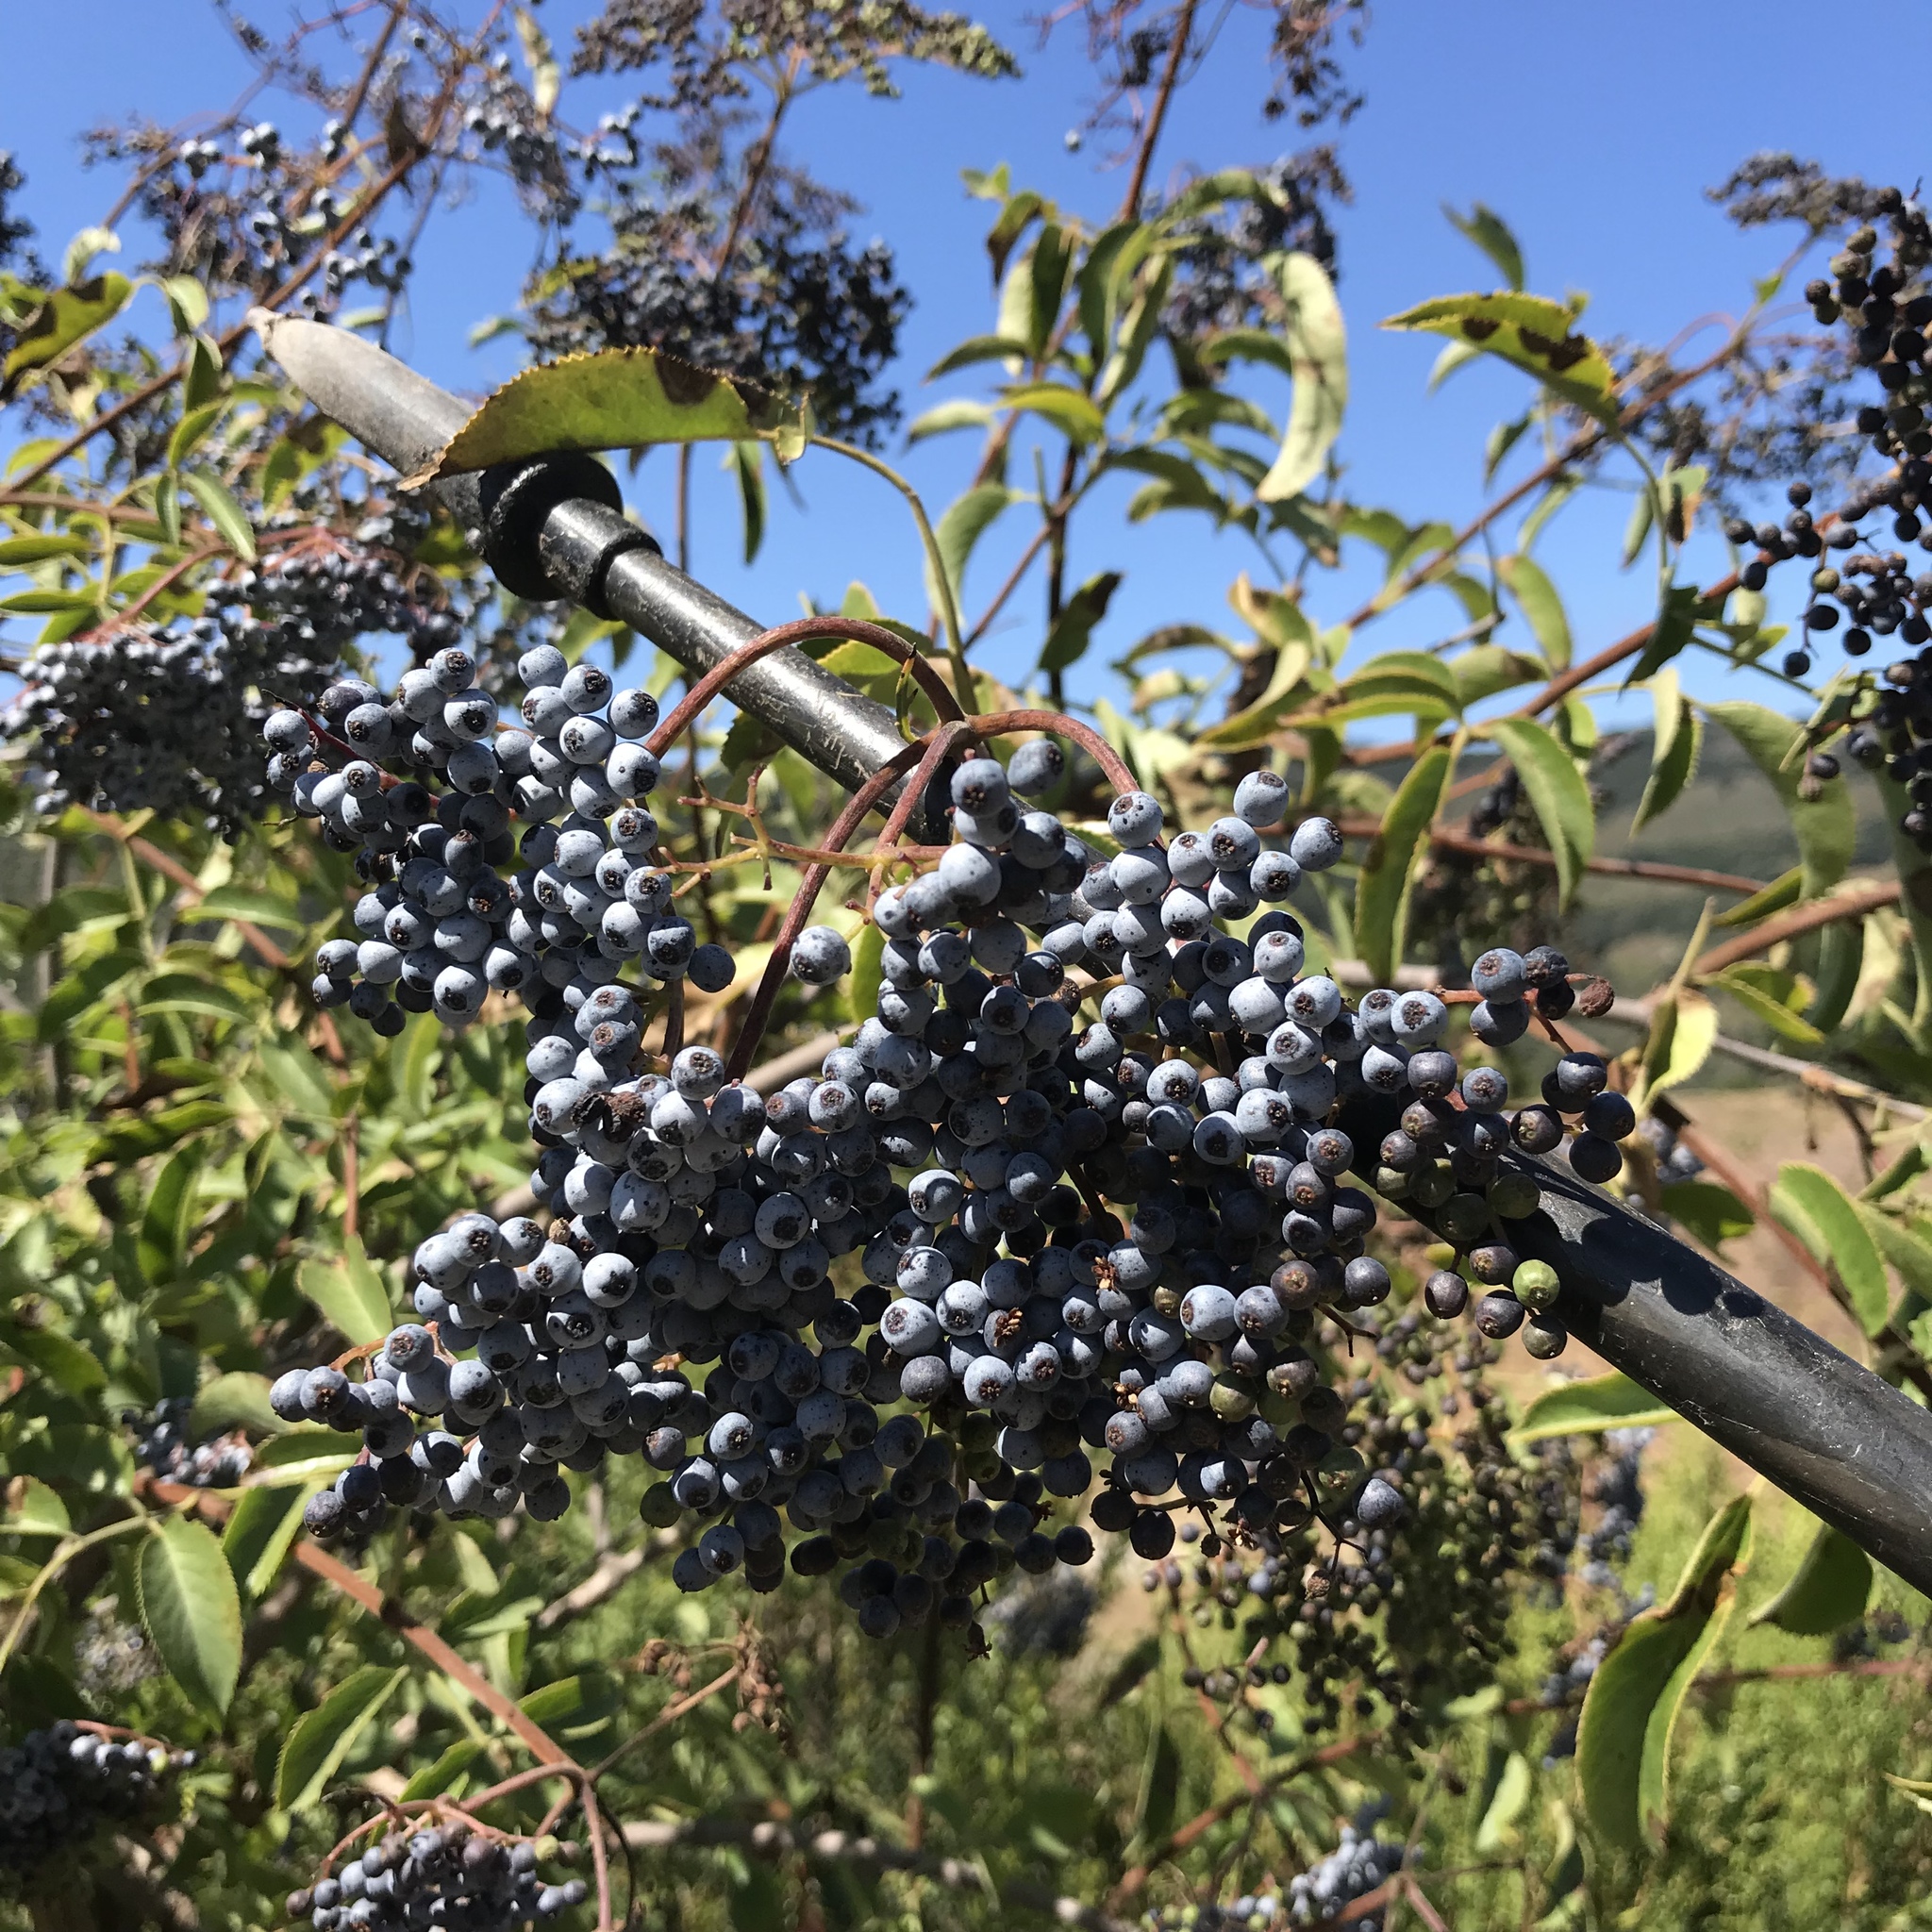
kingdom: Plantae
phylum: Tracheophyta
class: Magnoliopsida
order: Dipsacales
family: Viburnaceae
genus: Sambucus
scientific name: Sambucus cerulea
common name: Blue elder
